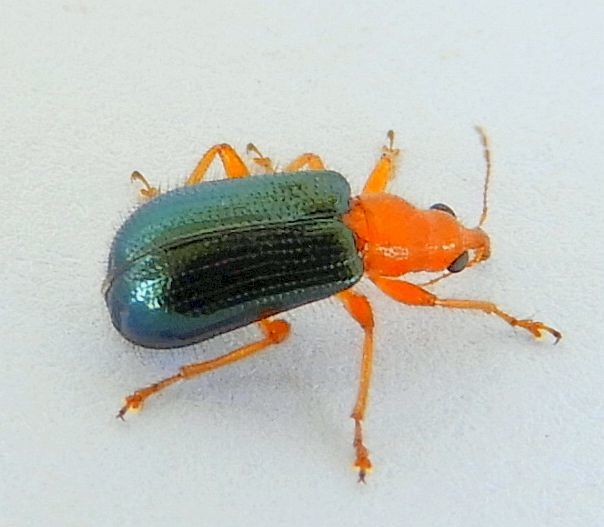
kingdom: Animalia
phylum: Arthropoda
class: Insecta
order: Coleoptera
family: Attelabidae
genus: Eugnamptus
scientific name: Eugnamptus nigriventris
